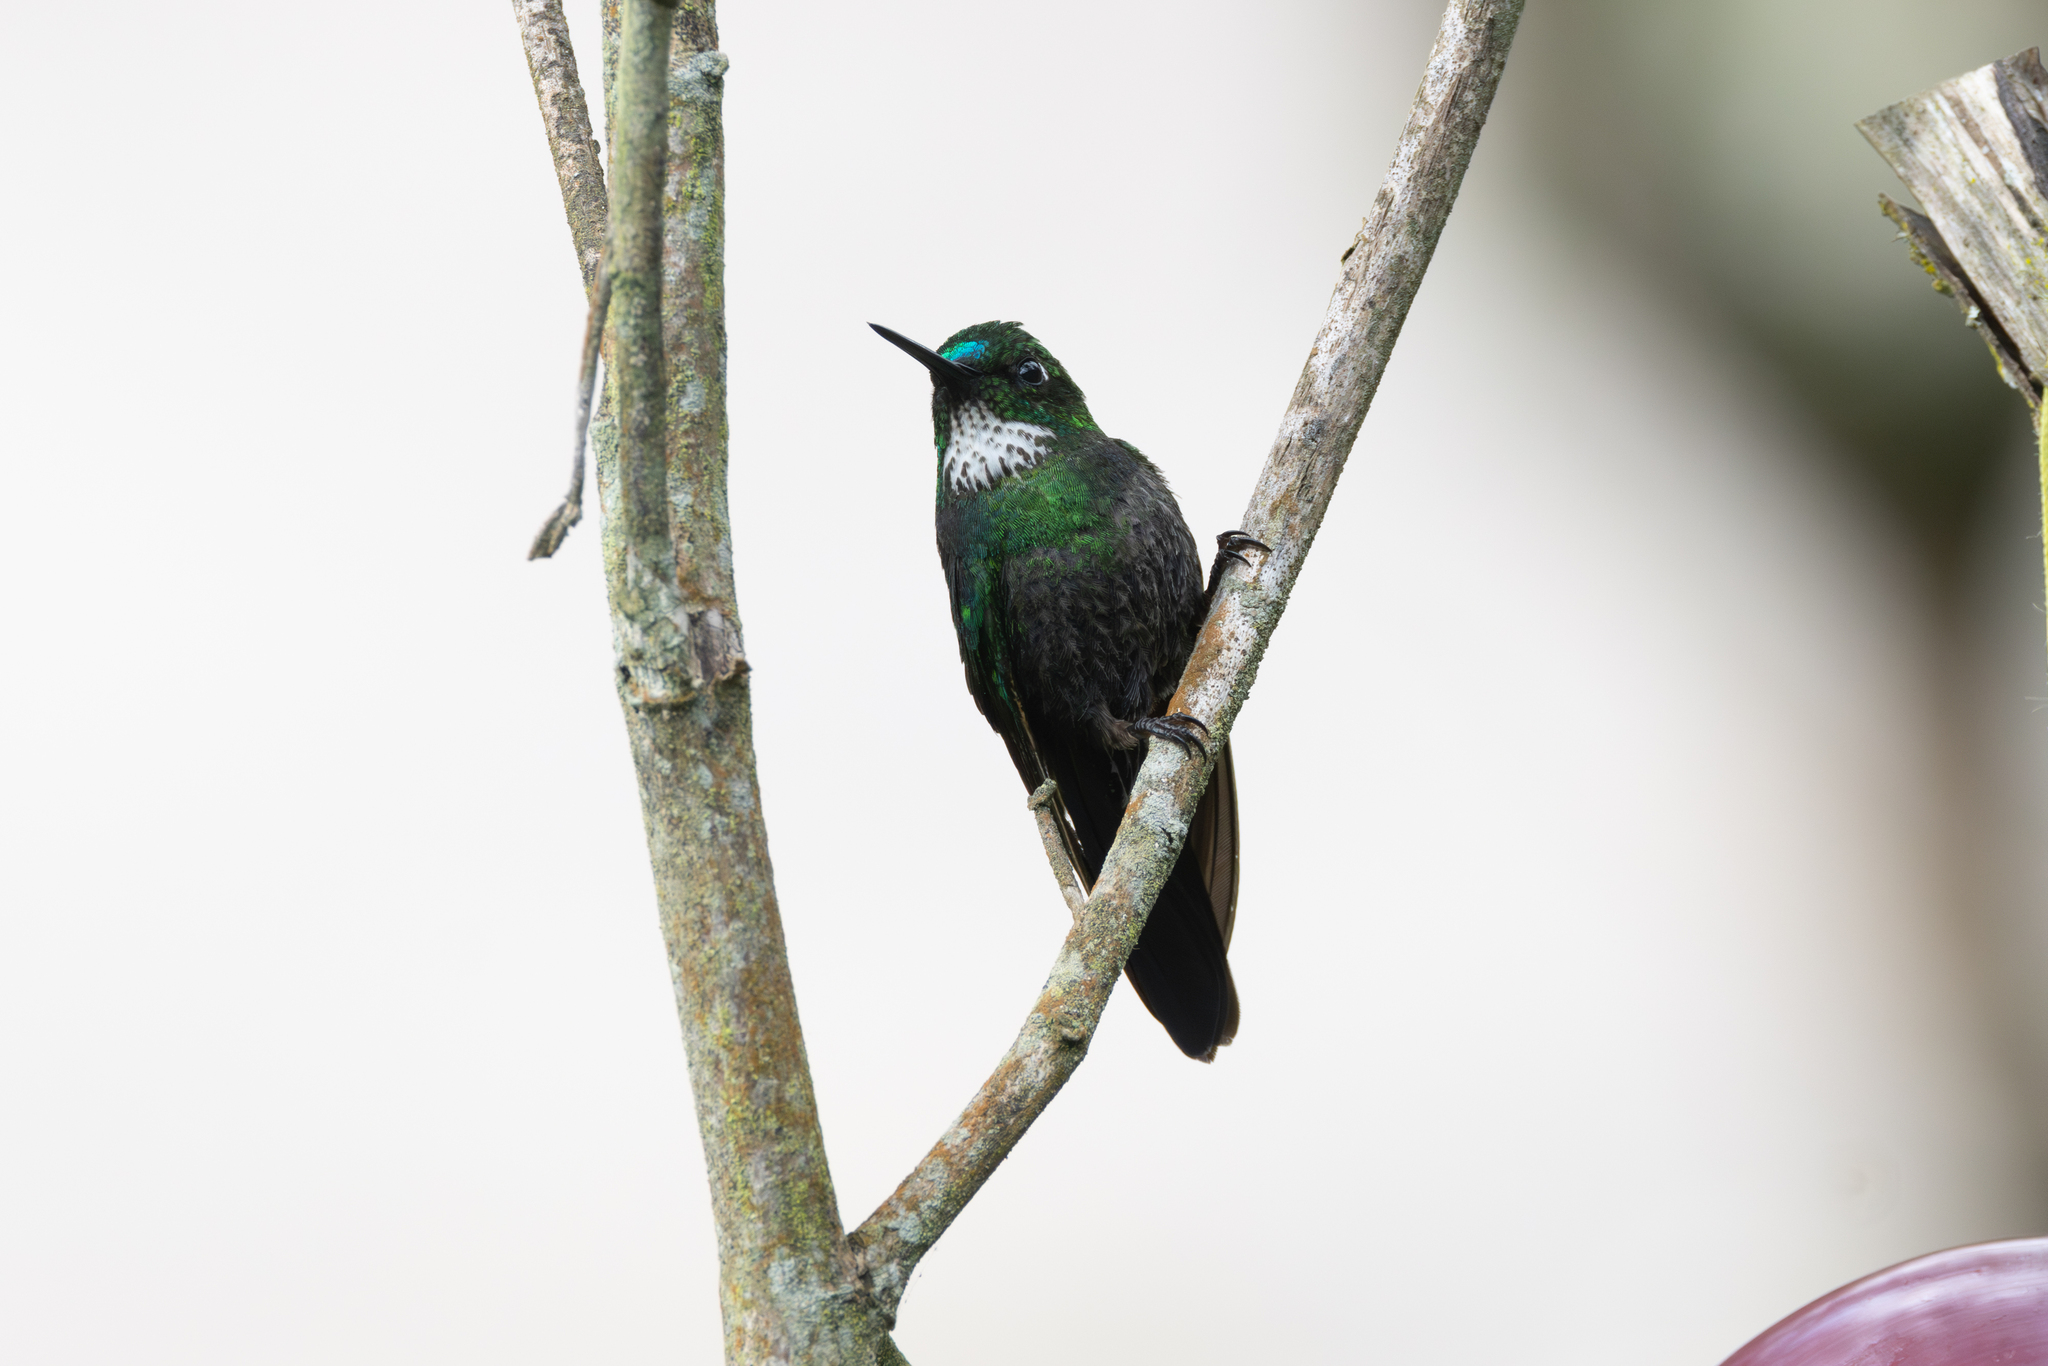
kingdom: Animalia
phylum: Chordata
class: Aves
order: Apodiformes
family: Trochilidae
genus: Heliangelus
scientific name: Heliangelus exortis
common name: Tourmaline sunangel
